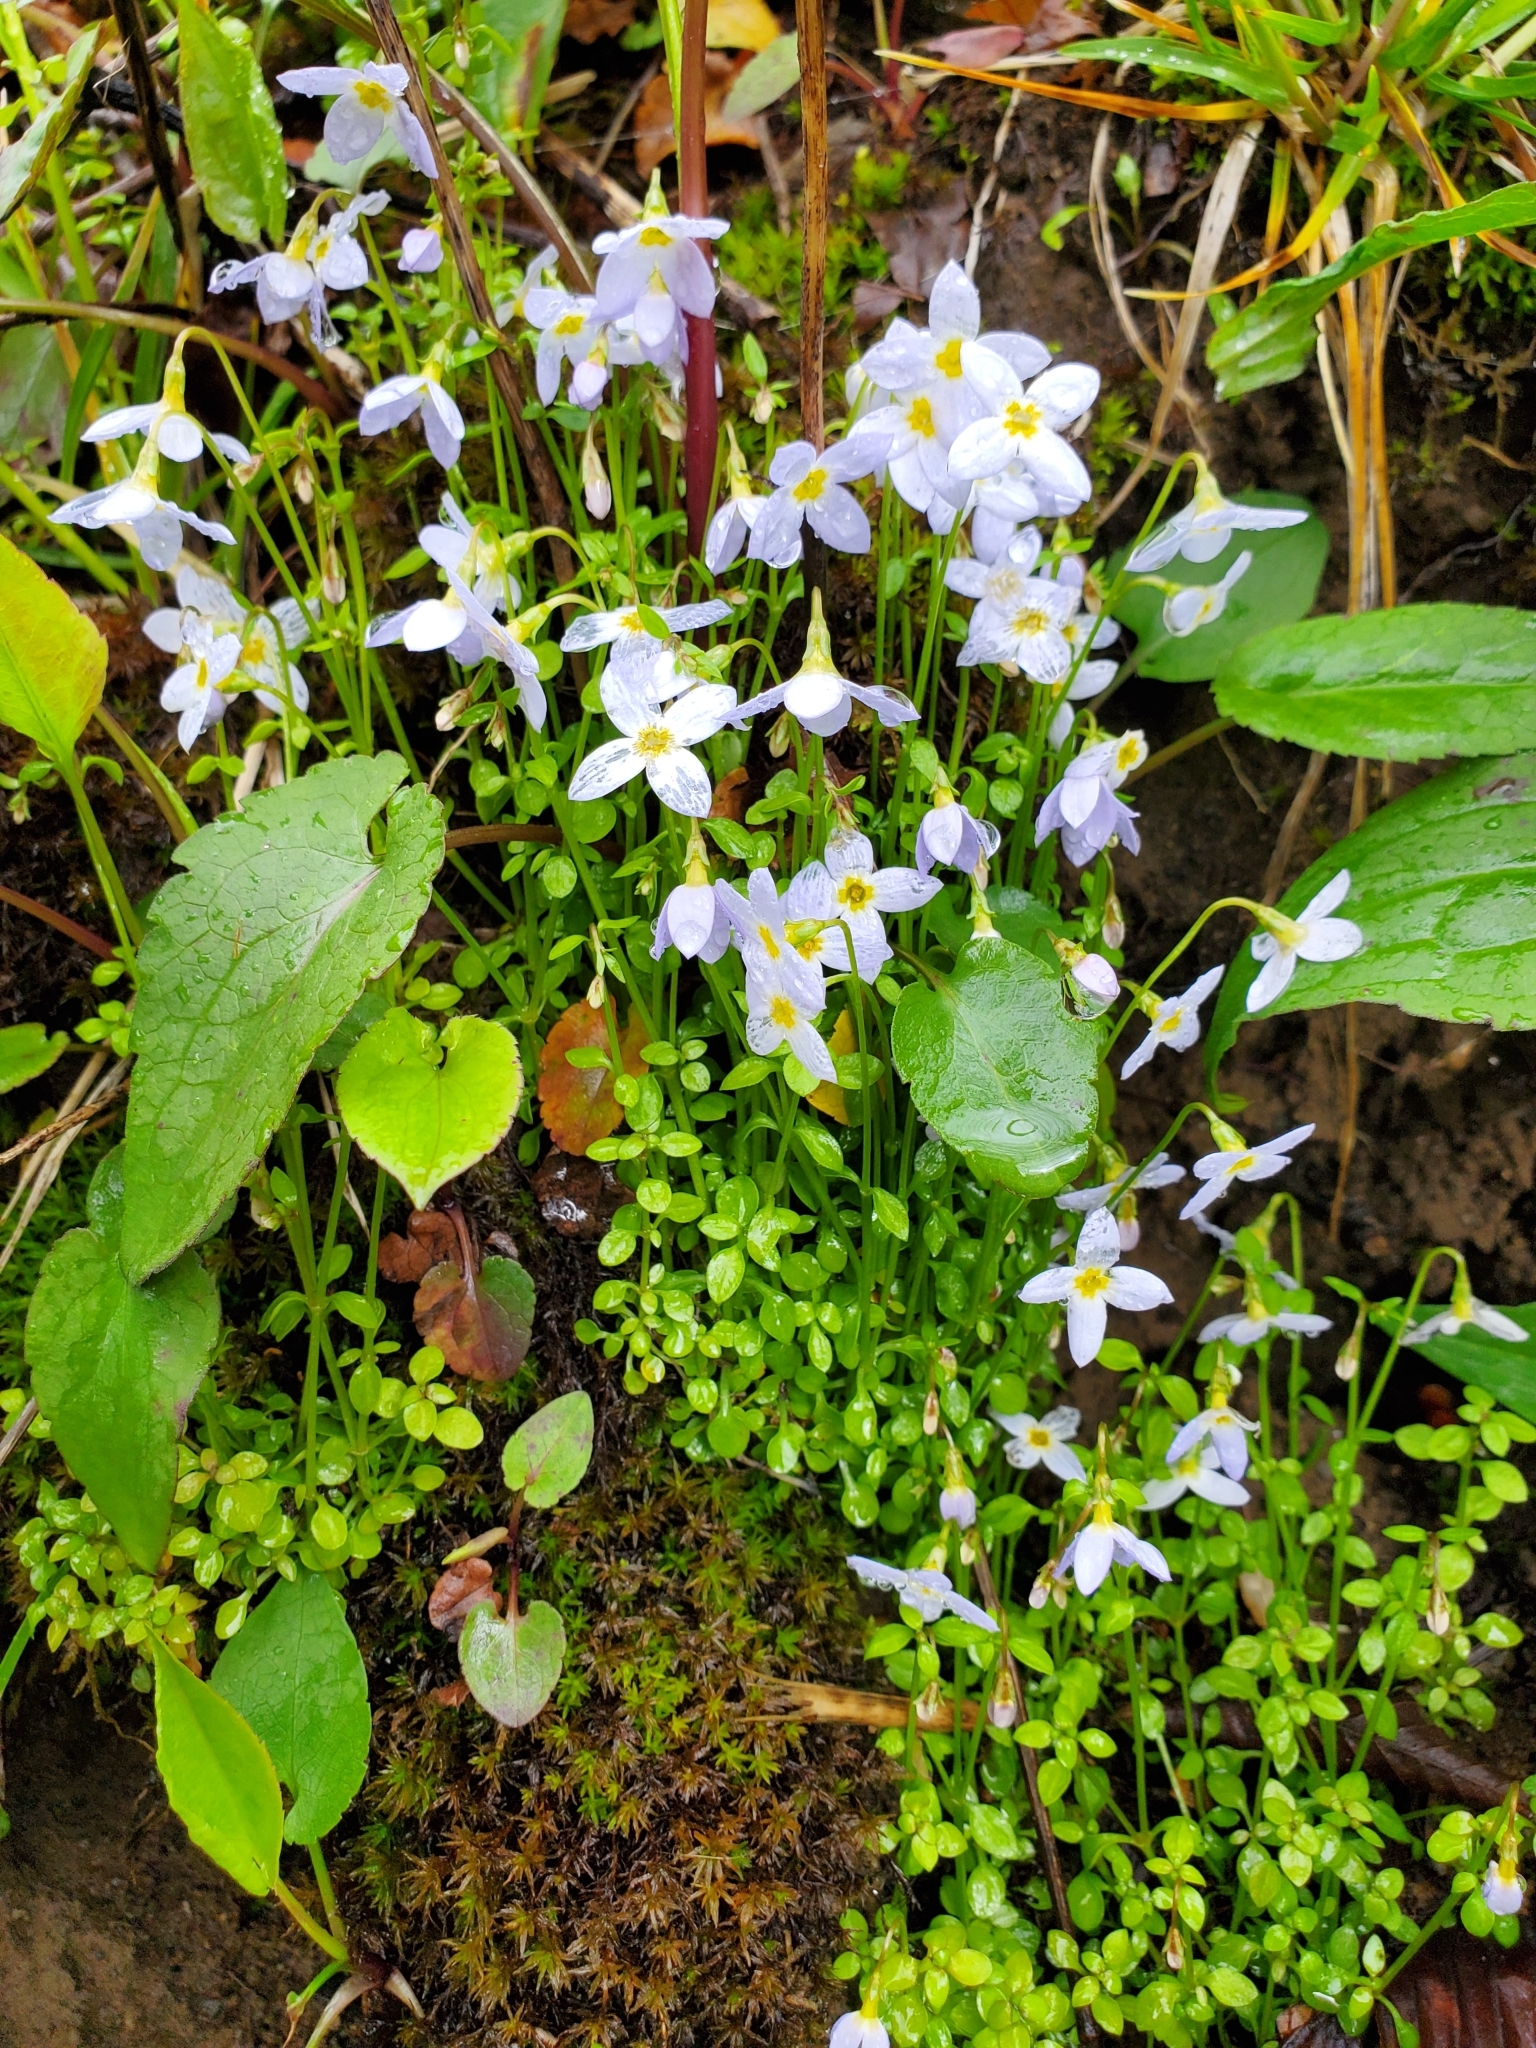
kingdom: Plantae
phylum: Tracheophyta
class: Magnoliopsida
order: Gentianales
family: Rubiaceae
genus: Houstonia
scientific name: Houstonia serpyllifolia
